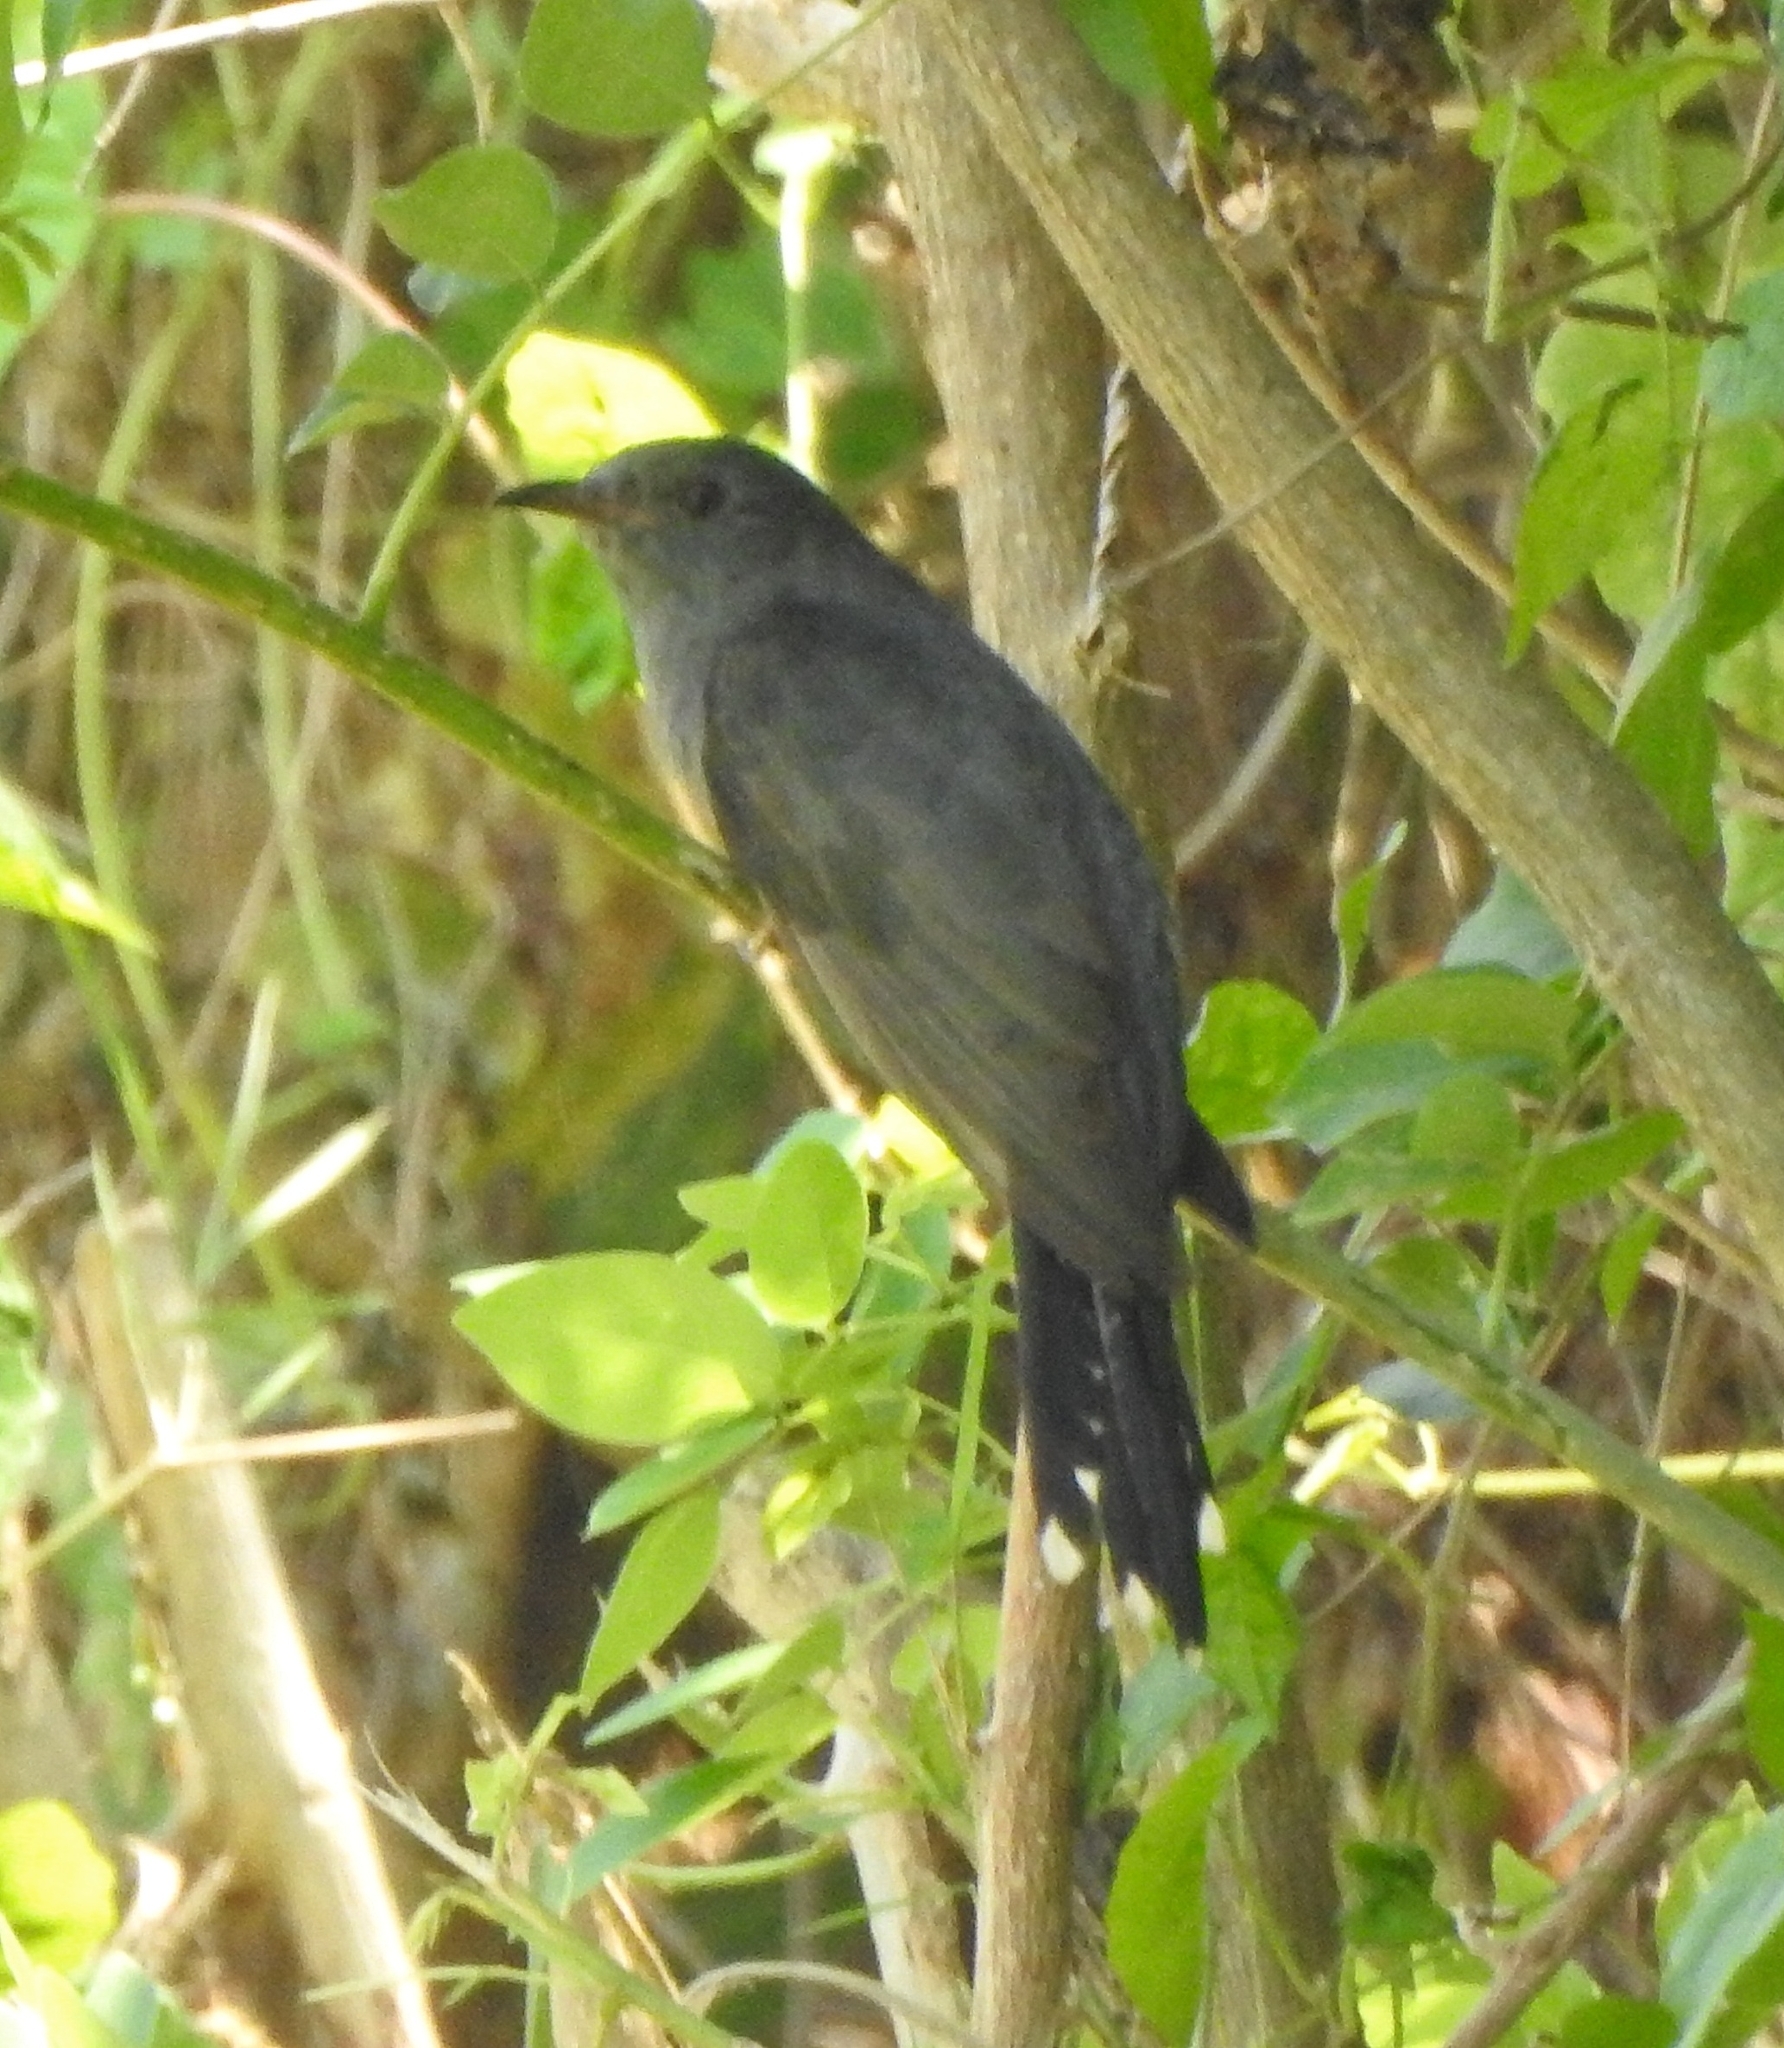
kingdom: Animalia
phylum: Chordata
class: Aves
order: Cuculiformes
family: Cuculidae
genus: Cacomantis
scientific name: Cacomantis passerinus
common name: Grey-bellied cuckoo
